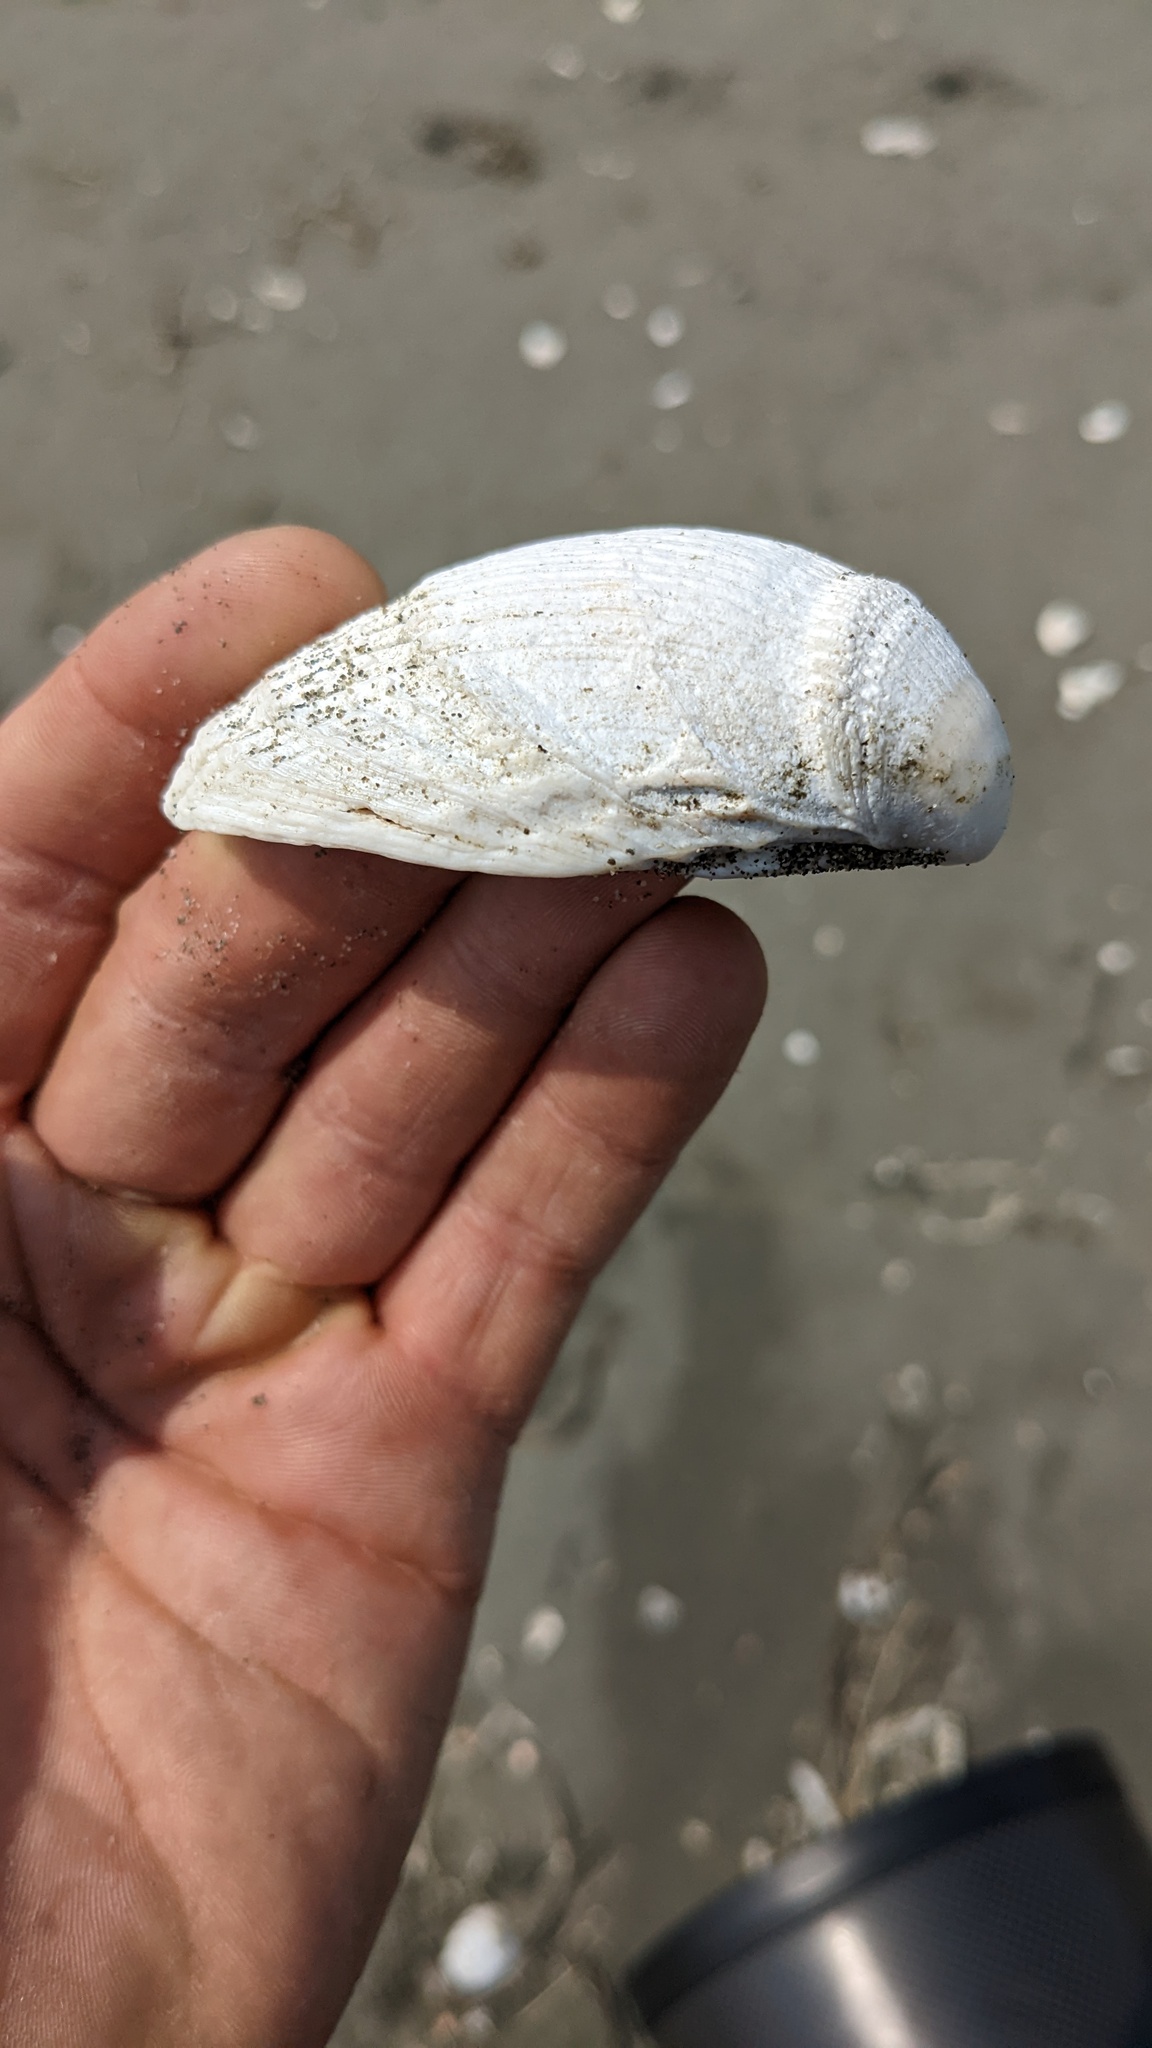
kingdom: Animalia
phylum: Mollusca
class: Bivalvia
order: Cardiida
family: Cardiidae
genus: Clinocardium
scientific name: Clinocardium nuttallii
